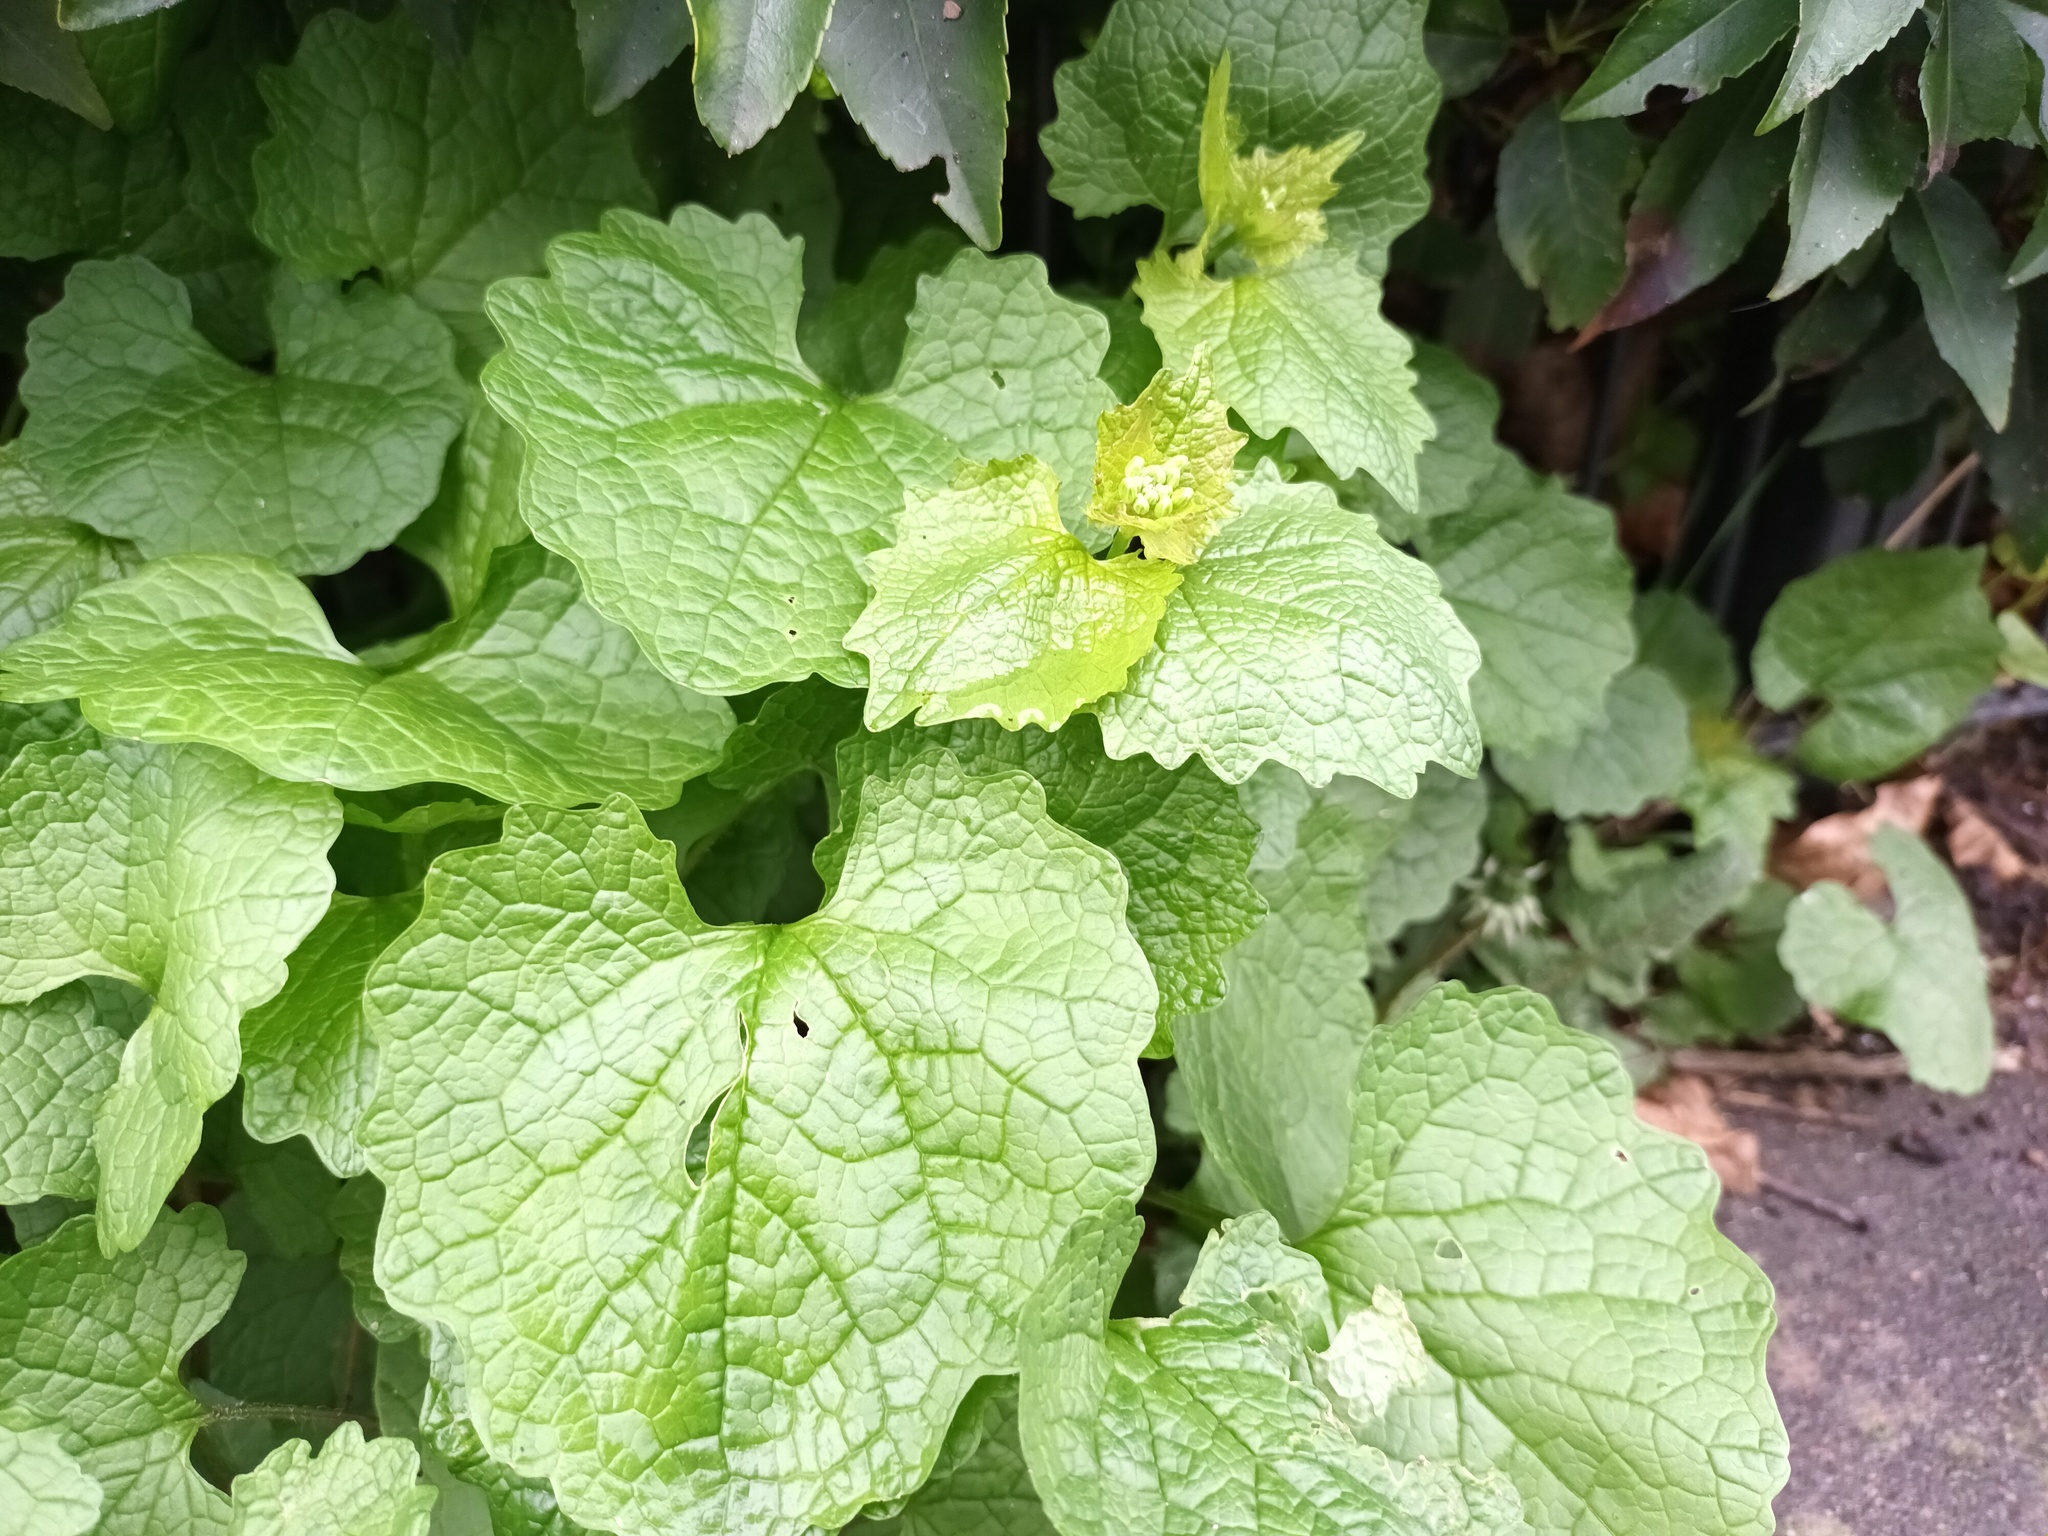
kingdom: Plantae
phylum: Tracheophyta
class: Magnoliopsida
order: Brassicales
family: Brassicaceae
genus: Alliaria
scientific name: Alliaria petiolata
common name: Garlic mustard
